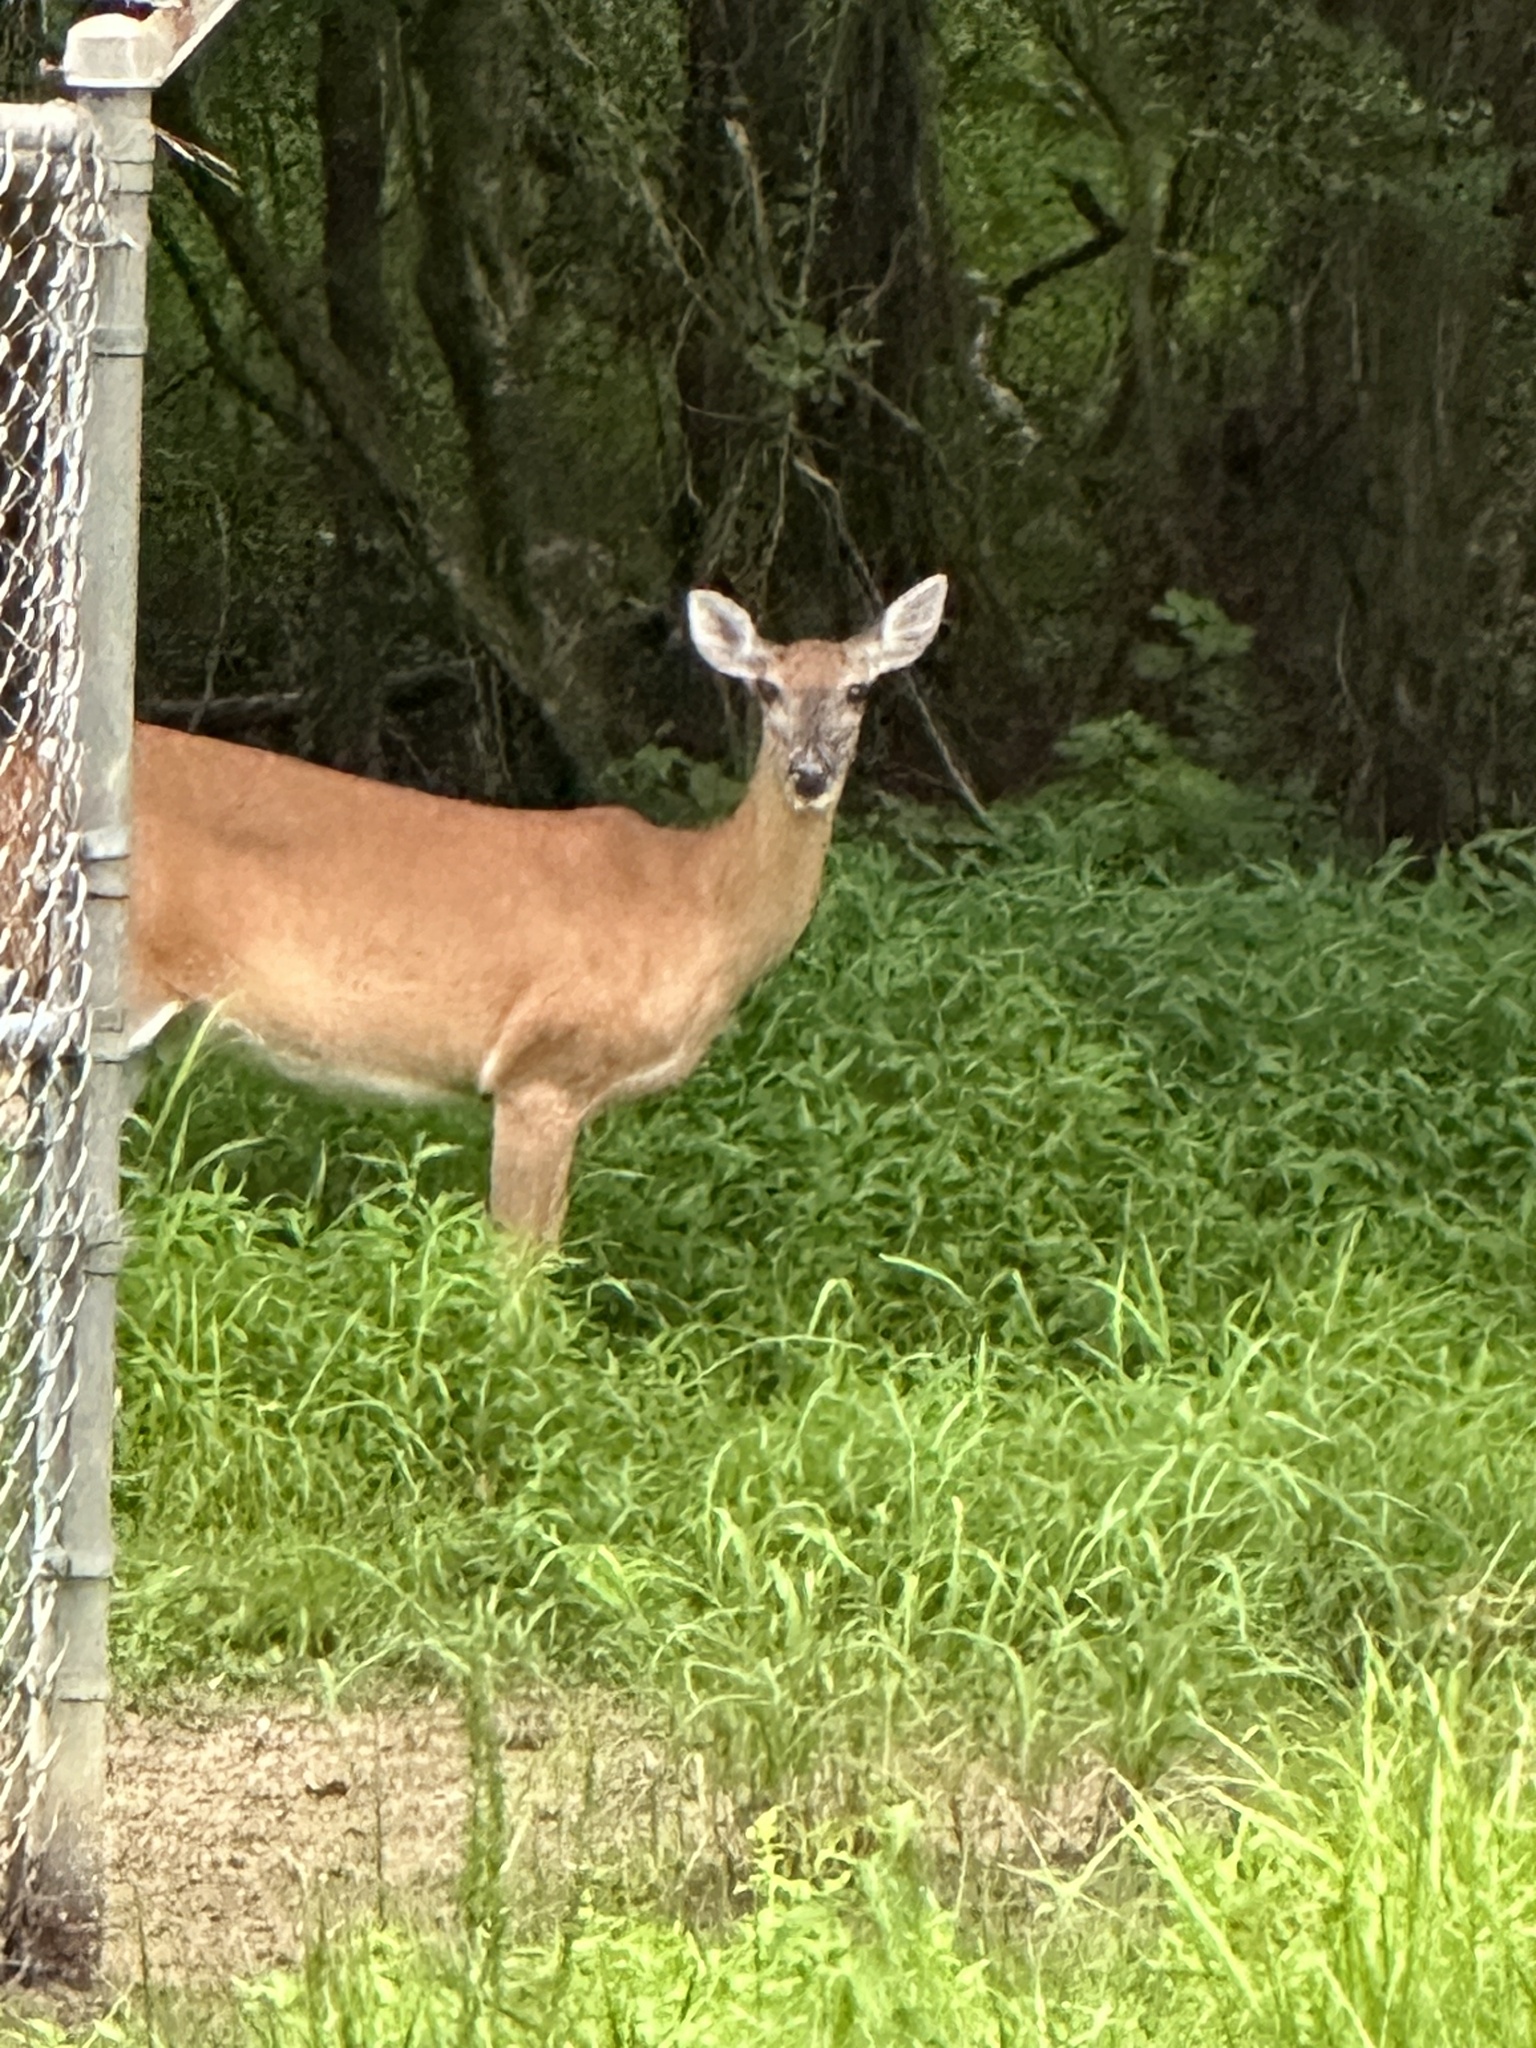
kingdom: Animalia
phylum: Chordata
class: Mammalia
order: Artiodactyla
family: Cervidae
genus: Odocoileus
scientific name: Odocoileus virginianus
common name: White-tailed deer
